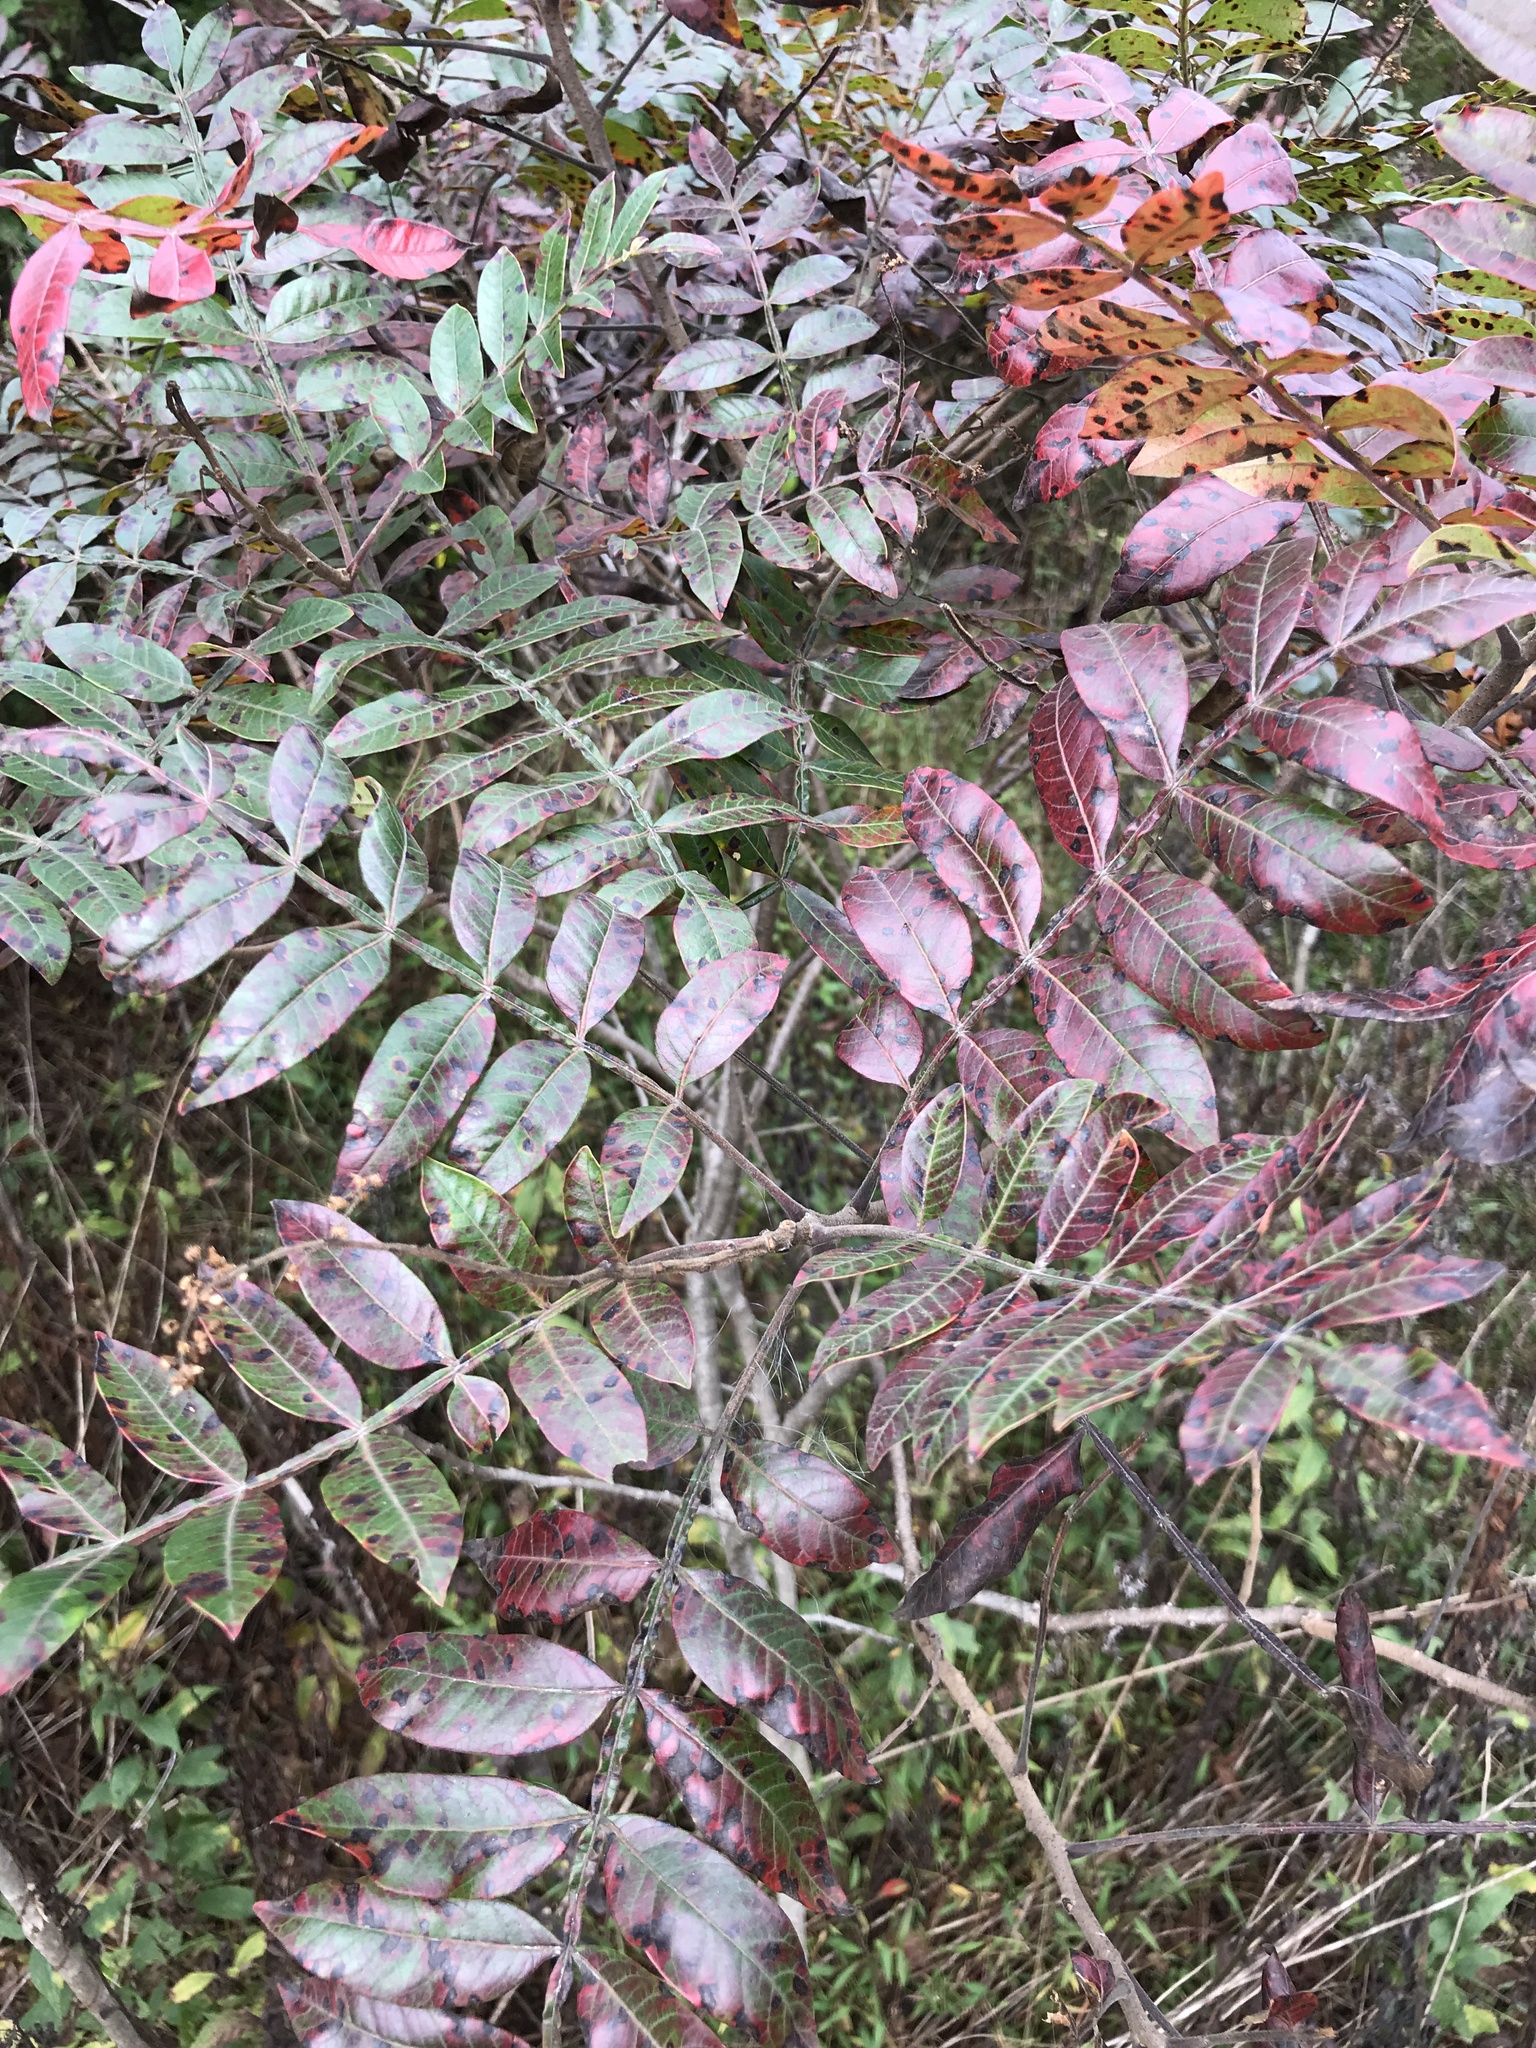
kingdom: Plantae
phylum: Tracheophyta
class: Magnoliopsida
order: Sapindales
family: Anacardiaceae
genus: Rhus
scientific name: Rhus copallina
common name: Shining sumac
